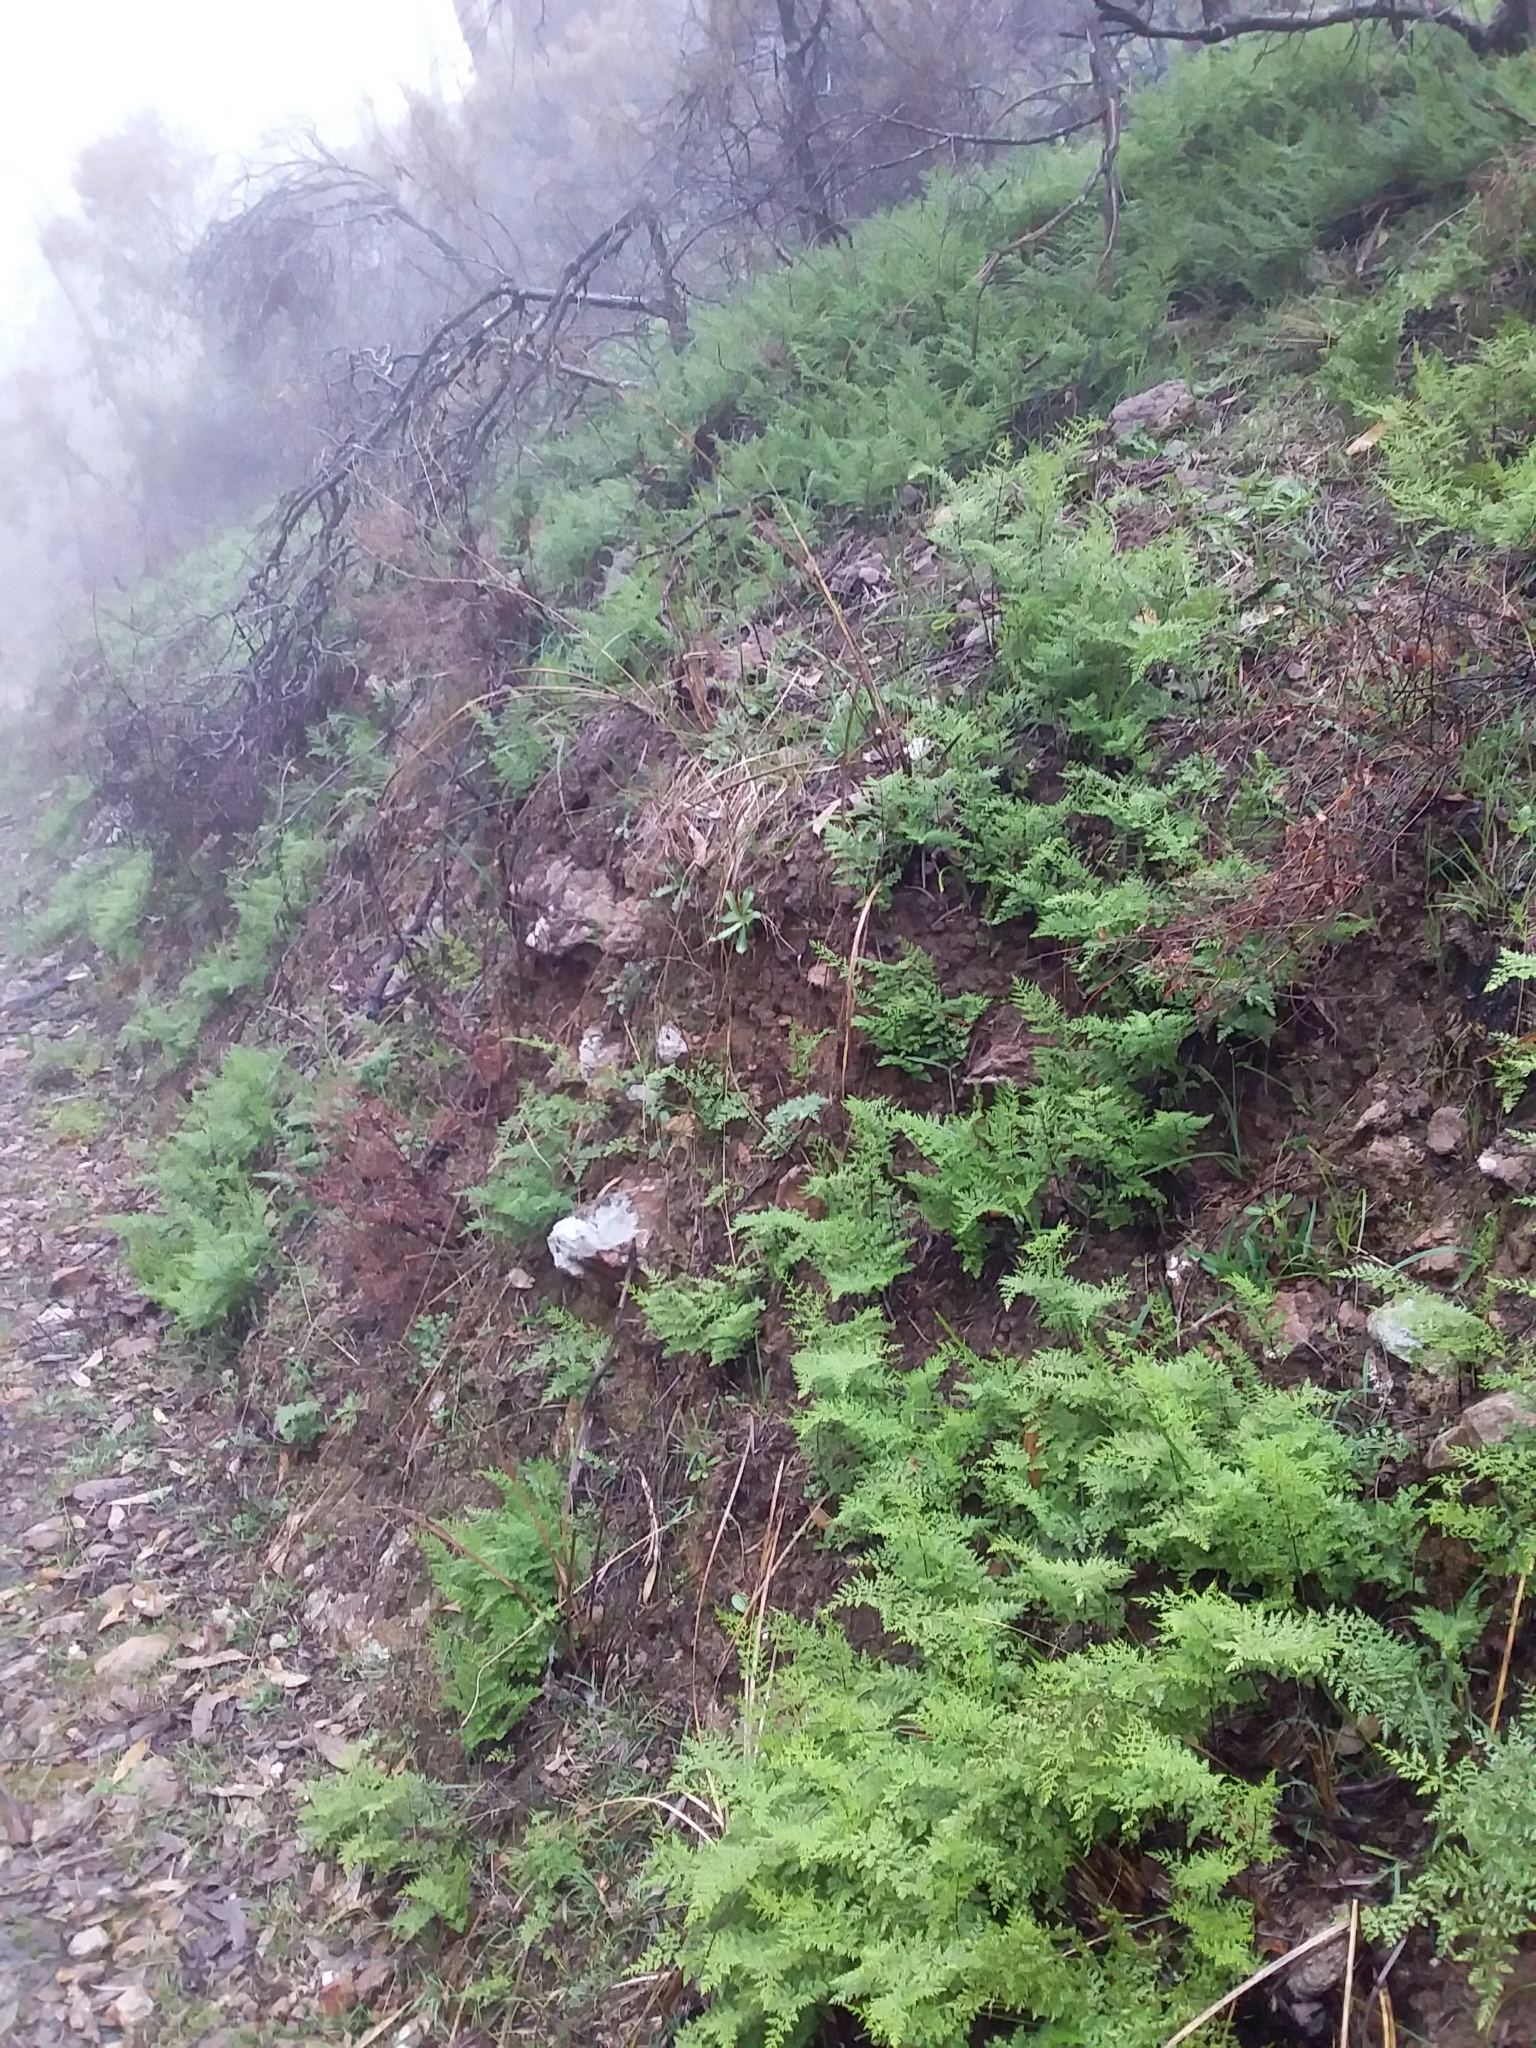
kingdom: Plantae
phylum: Tracheophyta
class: Polypodiopsida
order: Polypodiales
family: Pteridaceae
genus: Cheilanthes
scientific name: Cheilanthes austrotenuifolia
